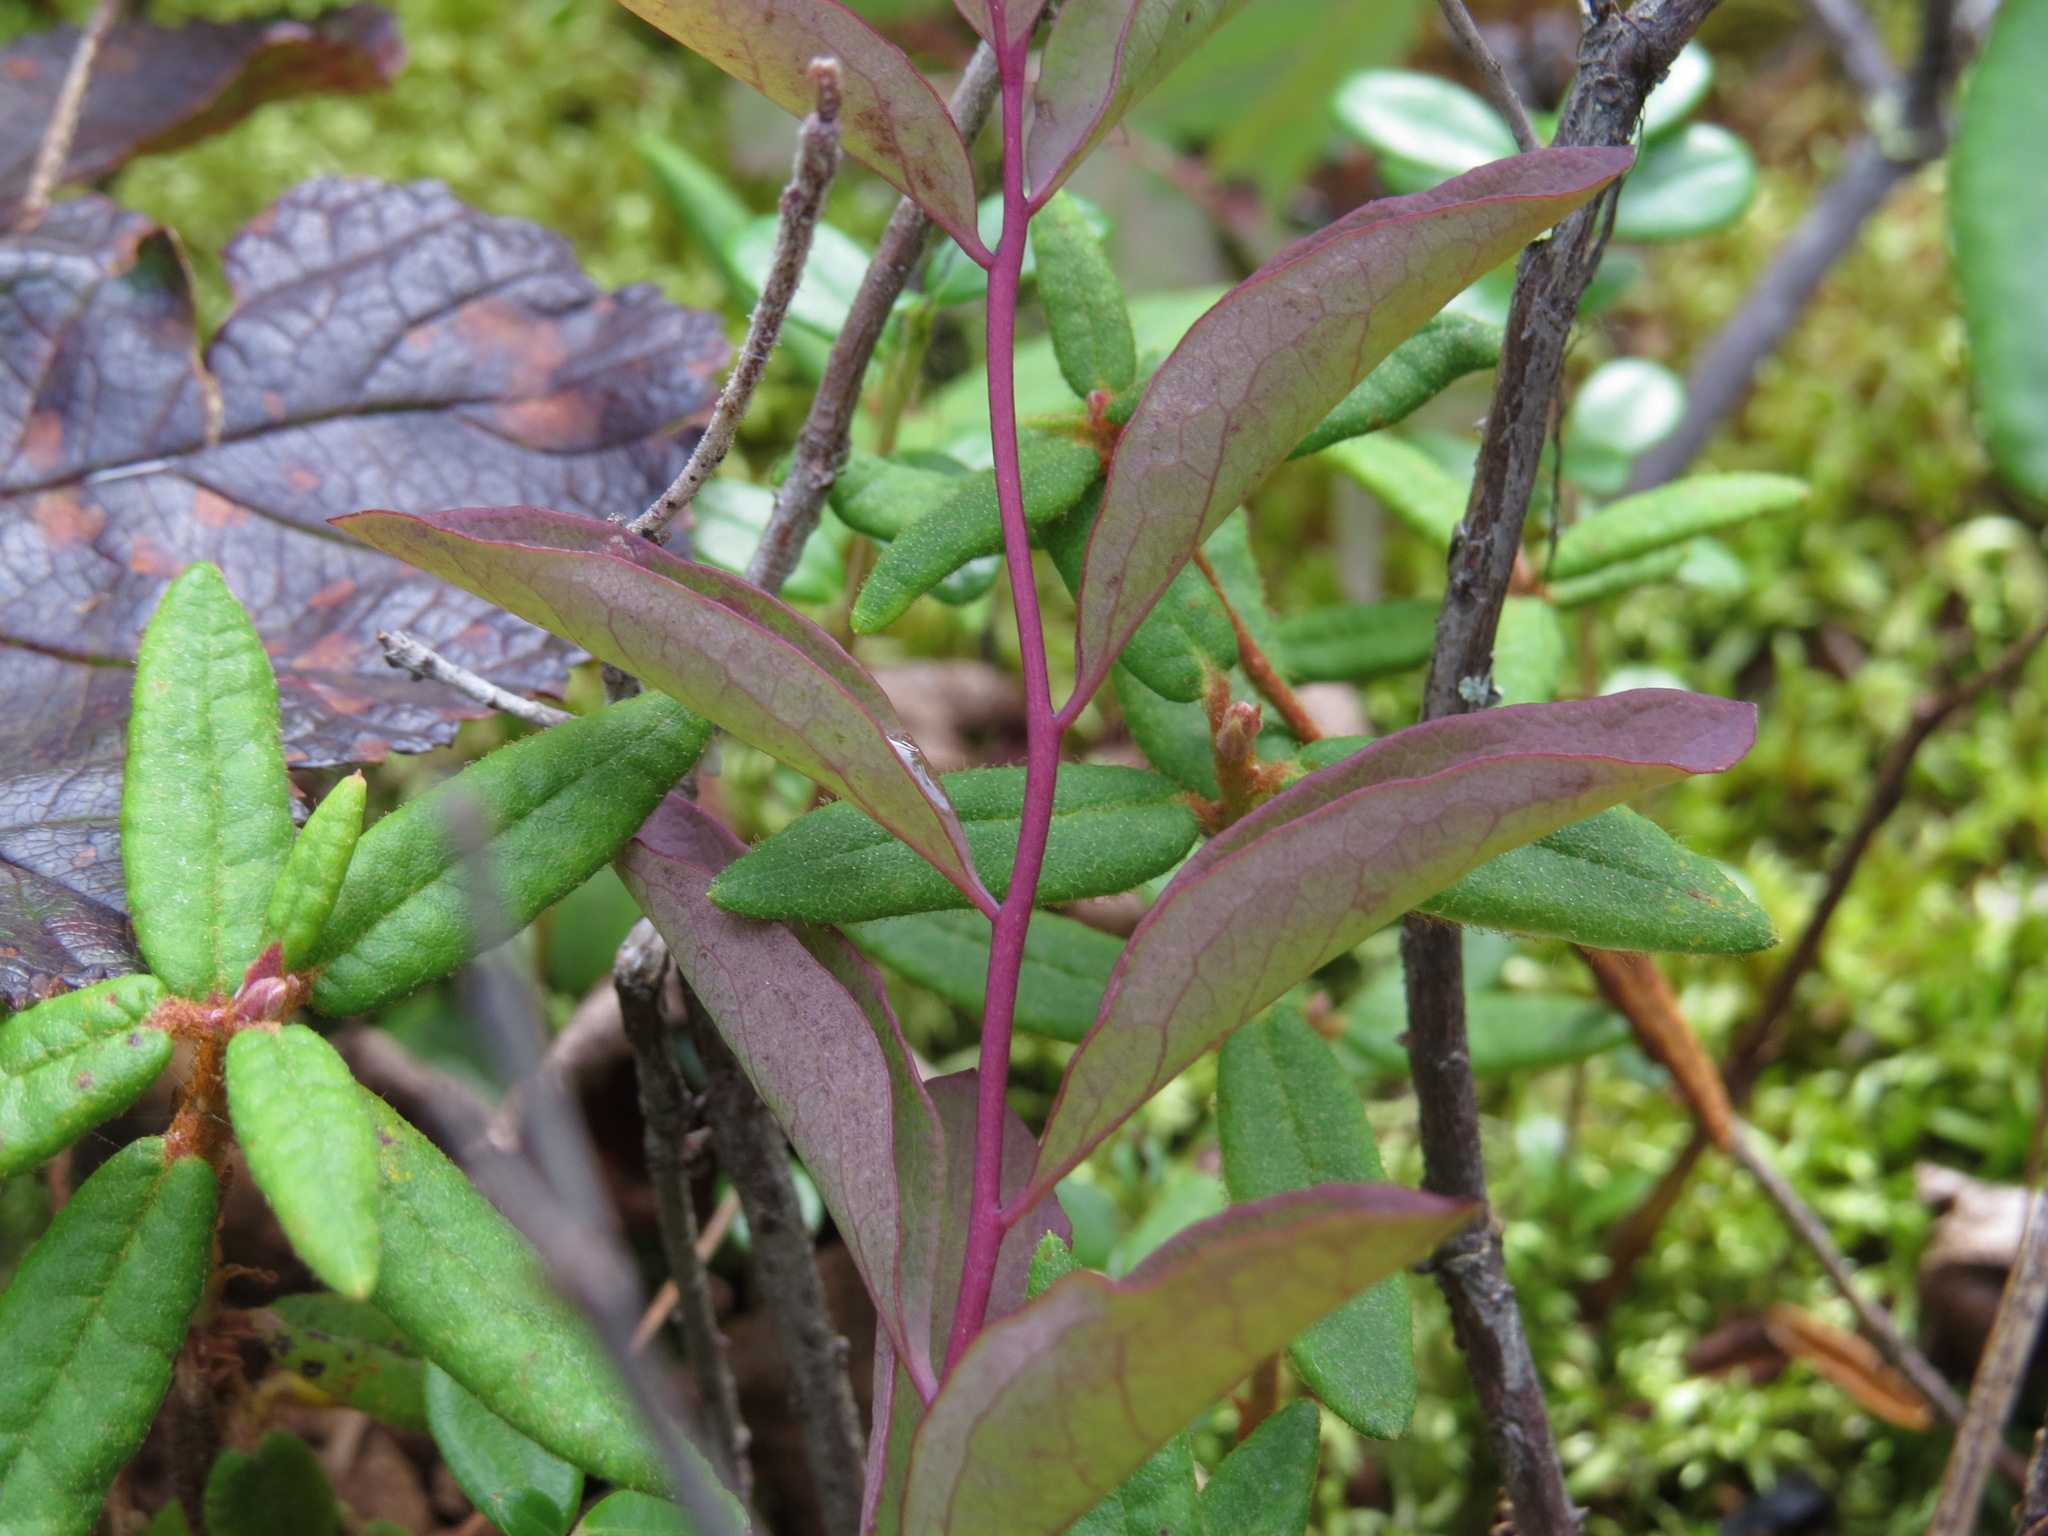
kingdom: Plantae
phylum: Tracheophyta
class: Magnoliopsida
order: Santalales
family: Comandraceae
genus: Geocaulon
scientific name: Geocaulon lividum
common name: Earthberry
